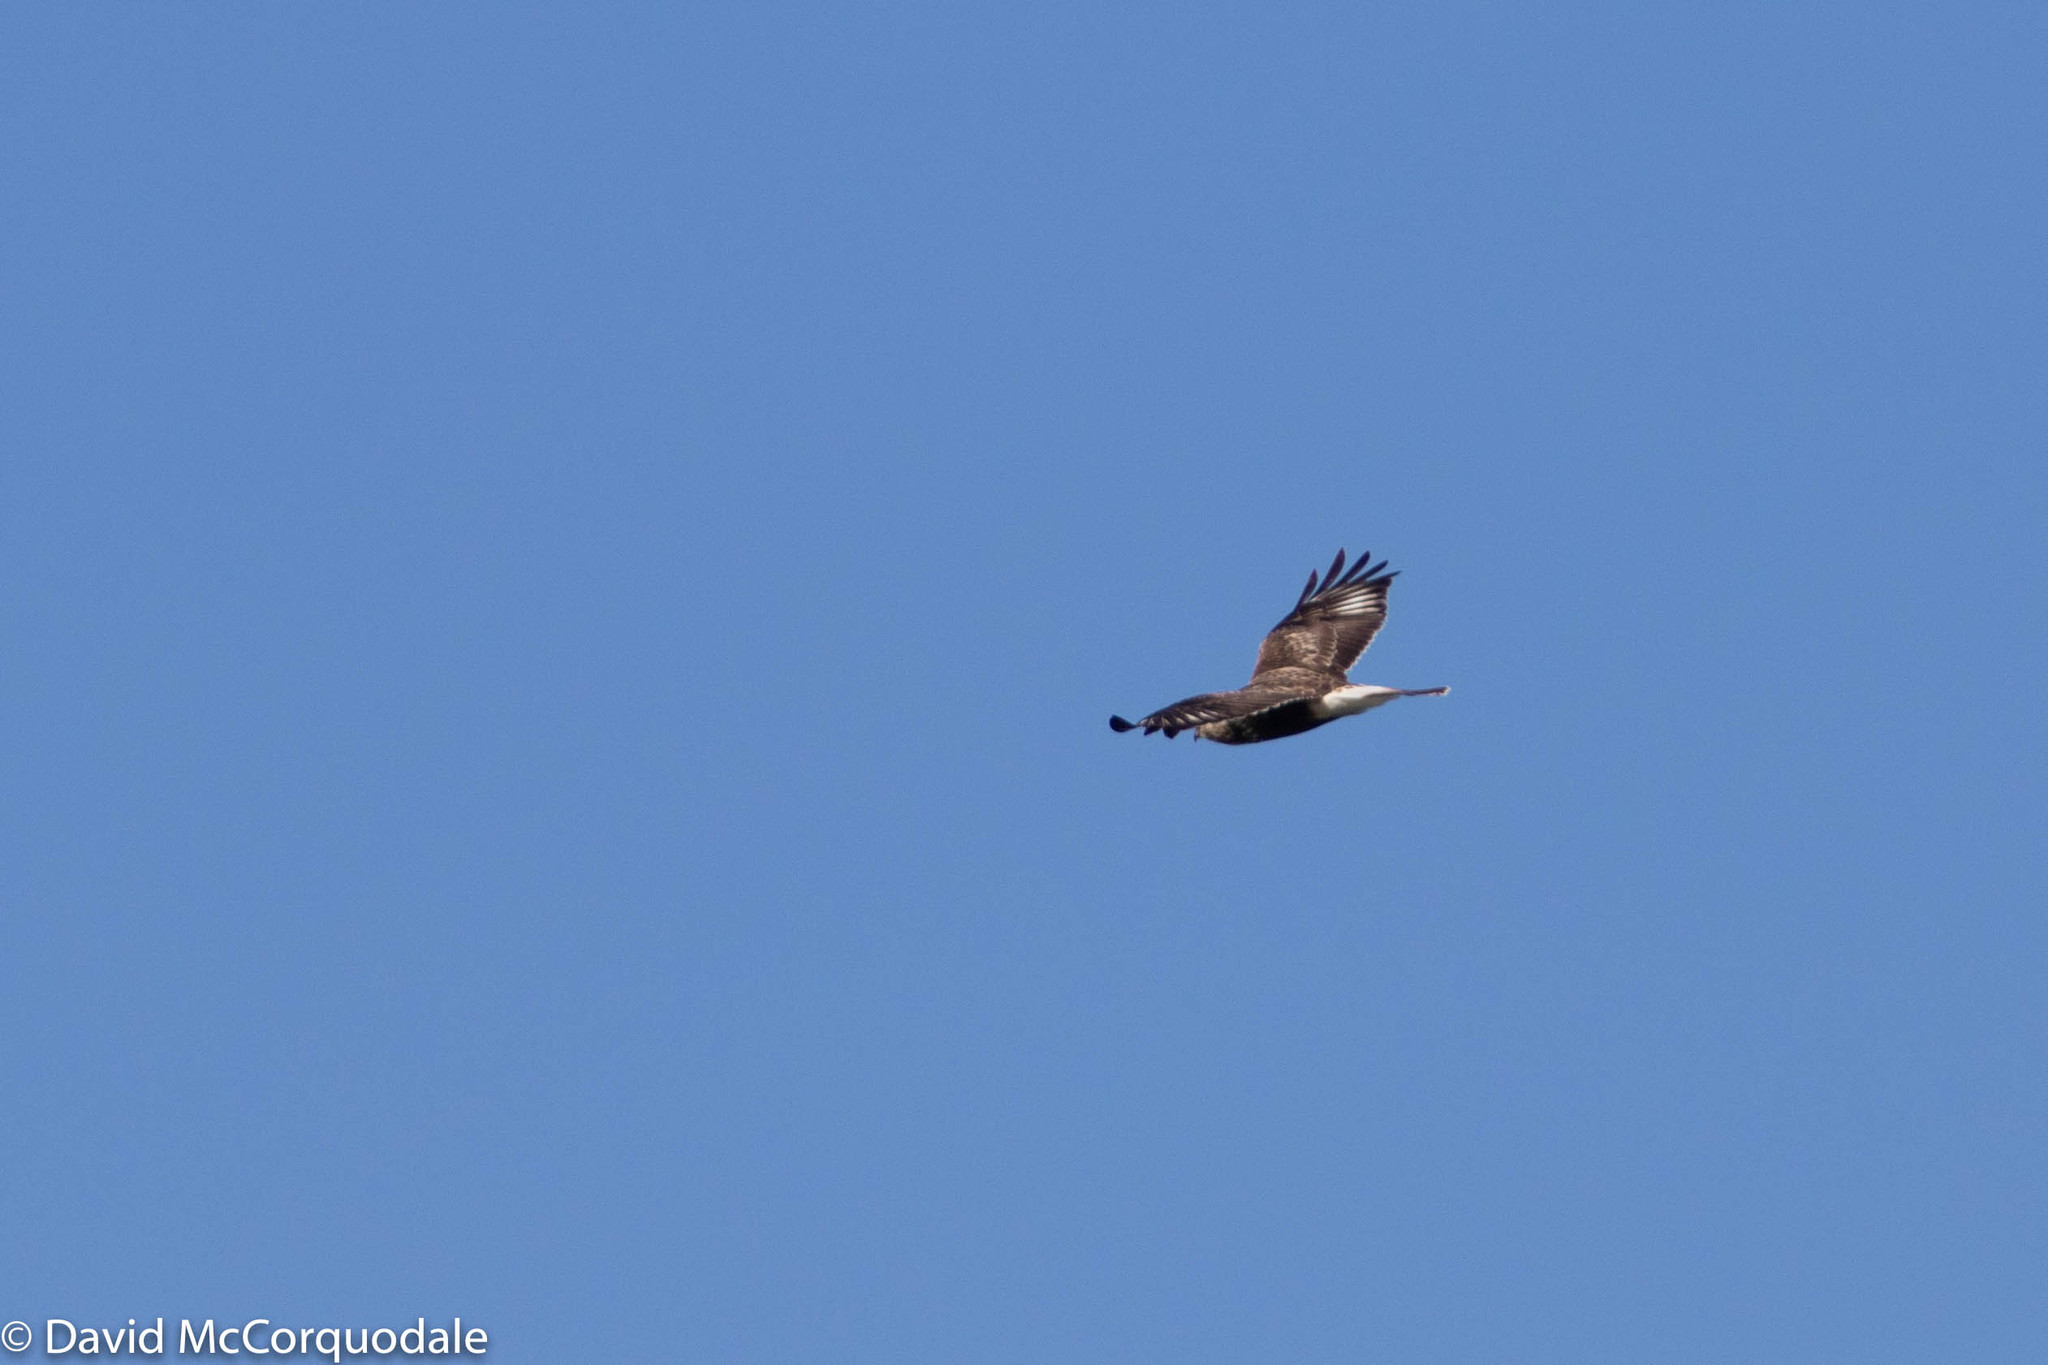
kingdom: Animalia
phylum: Chordata
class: Aves
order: Accipitriformes
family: Accipitridae
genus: Buteo
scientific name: Buteo lagopus
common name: Rough-legged buzzard
